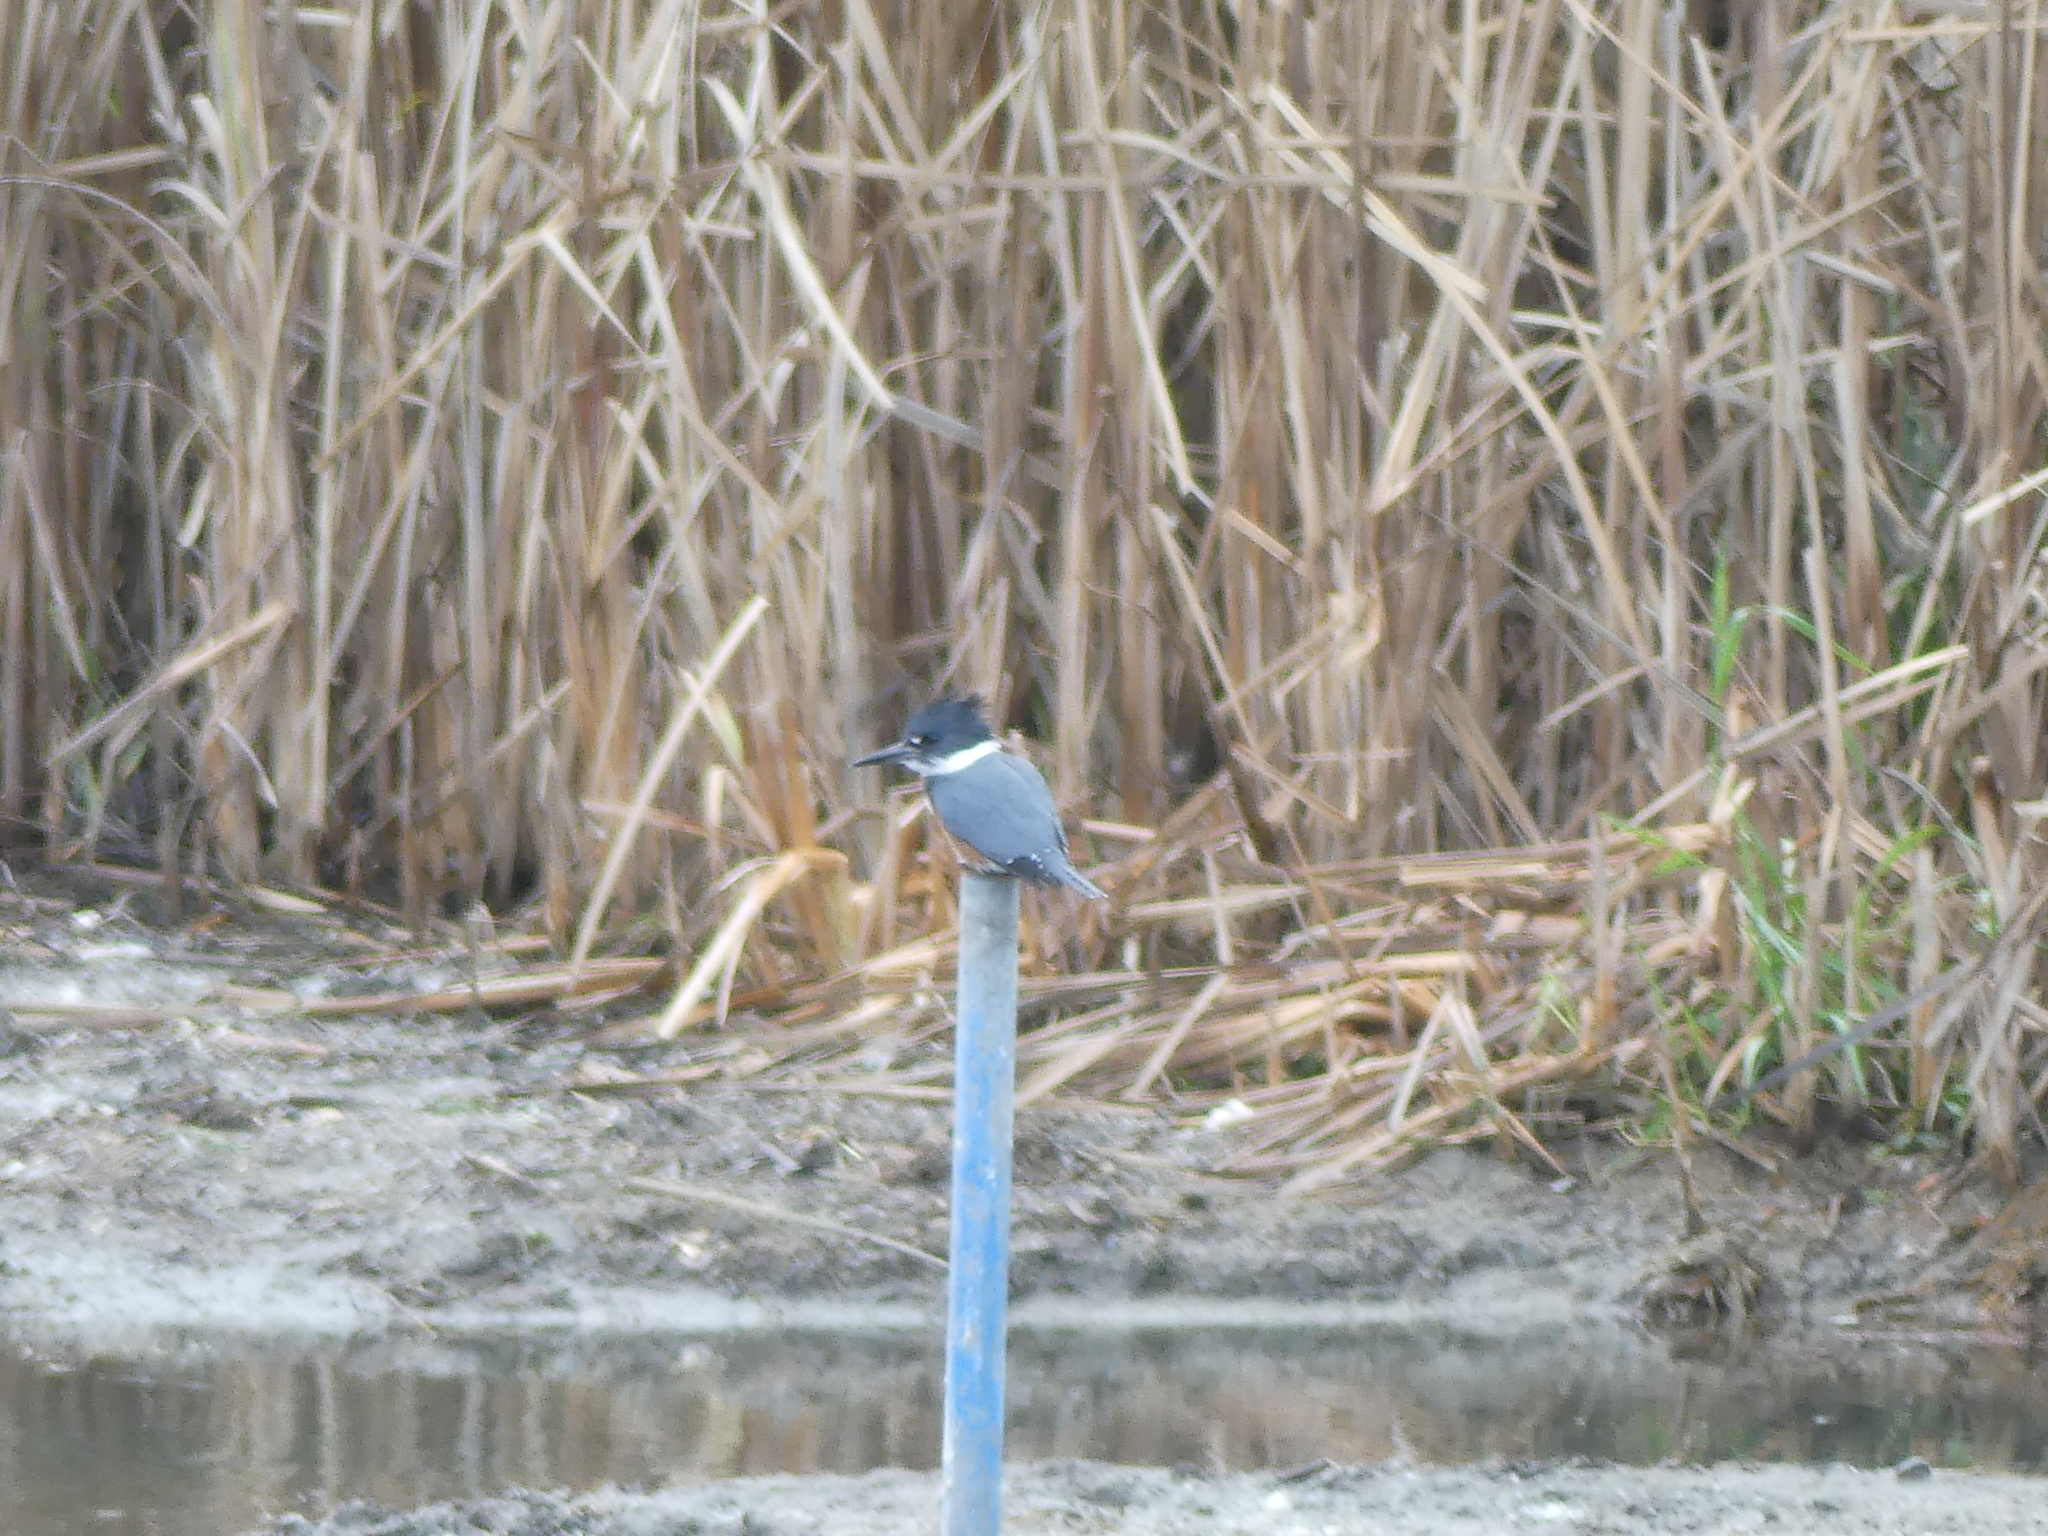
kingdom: Animalia
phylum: Chordata
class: Aves
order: Coraciiformes
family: Alcedinidae
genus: Megaceryle
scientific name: Megaceryle alcyon
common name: Belted kingfisher
